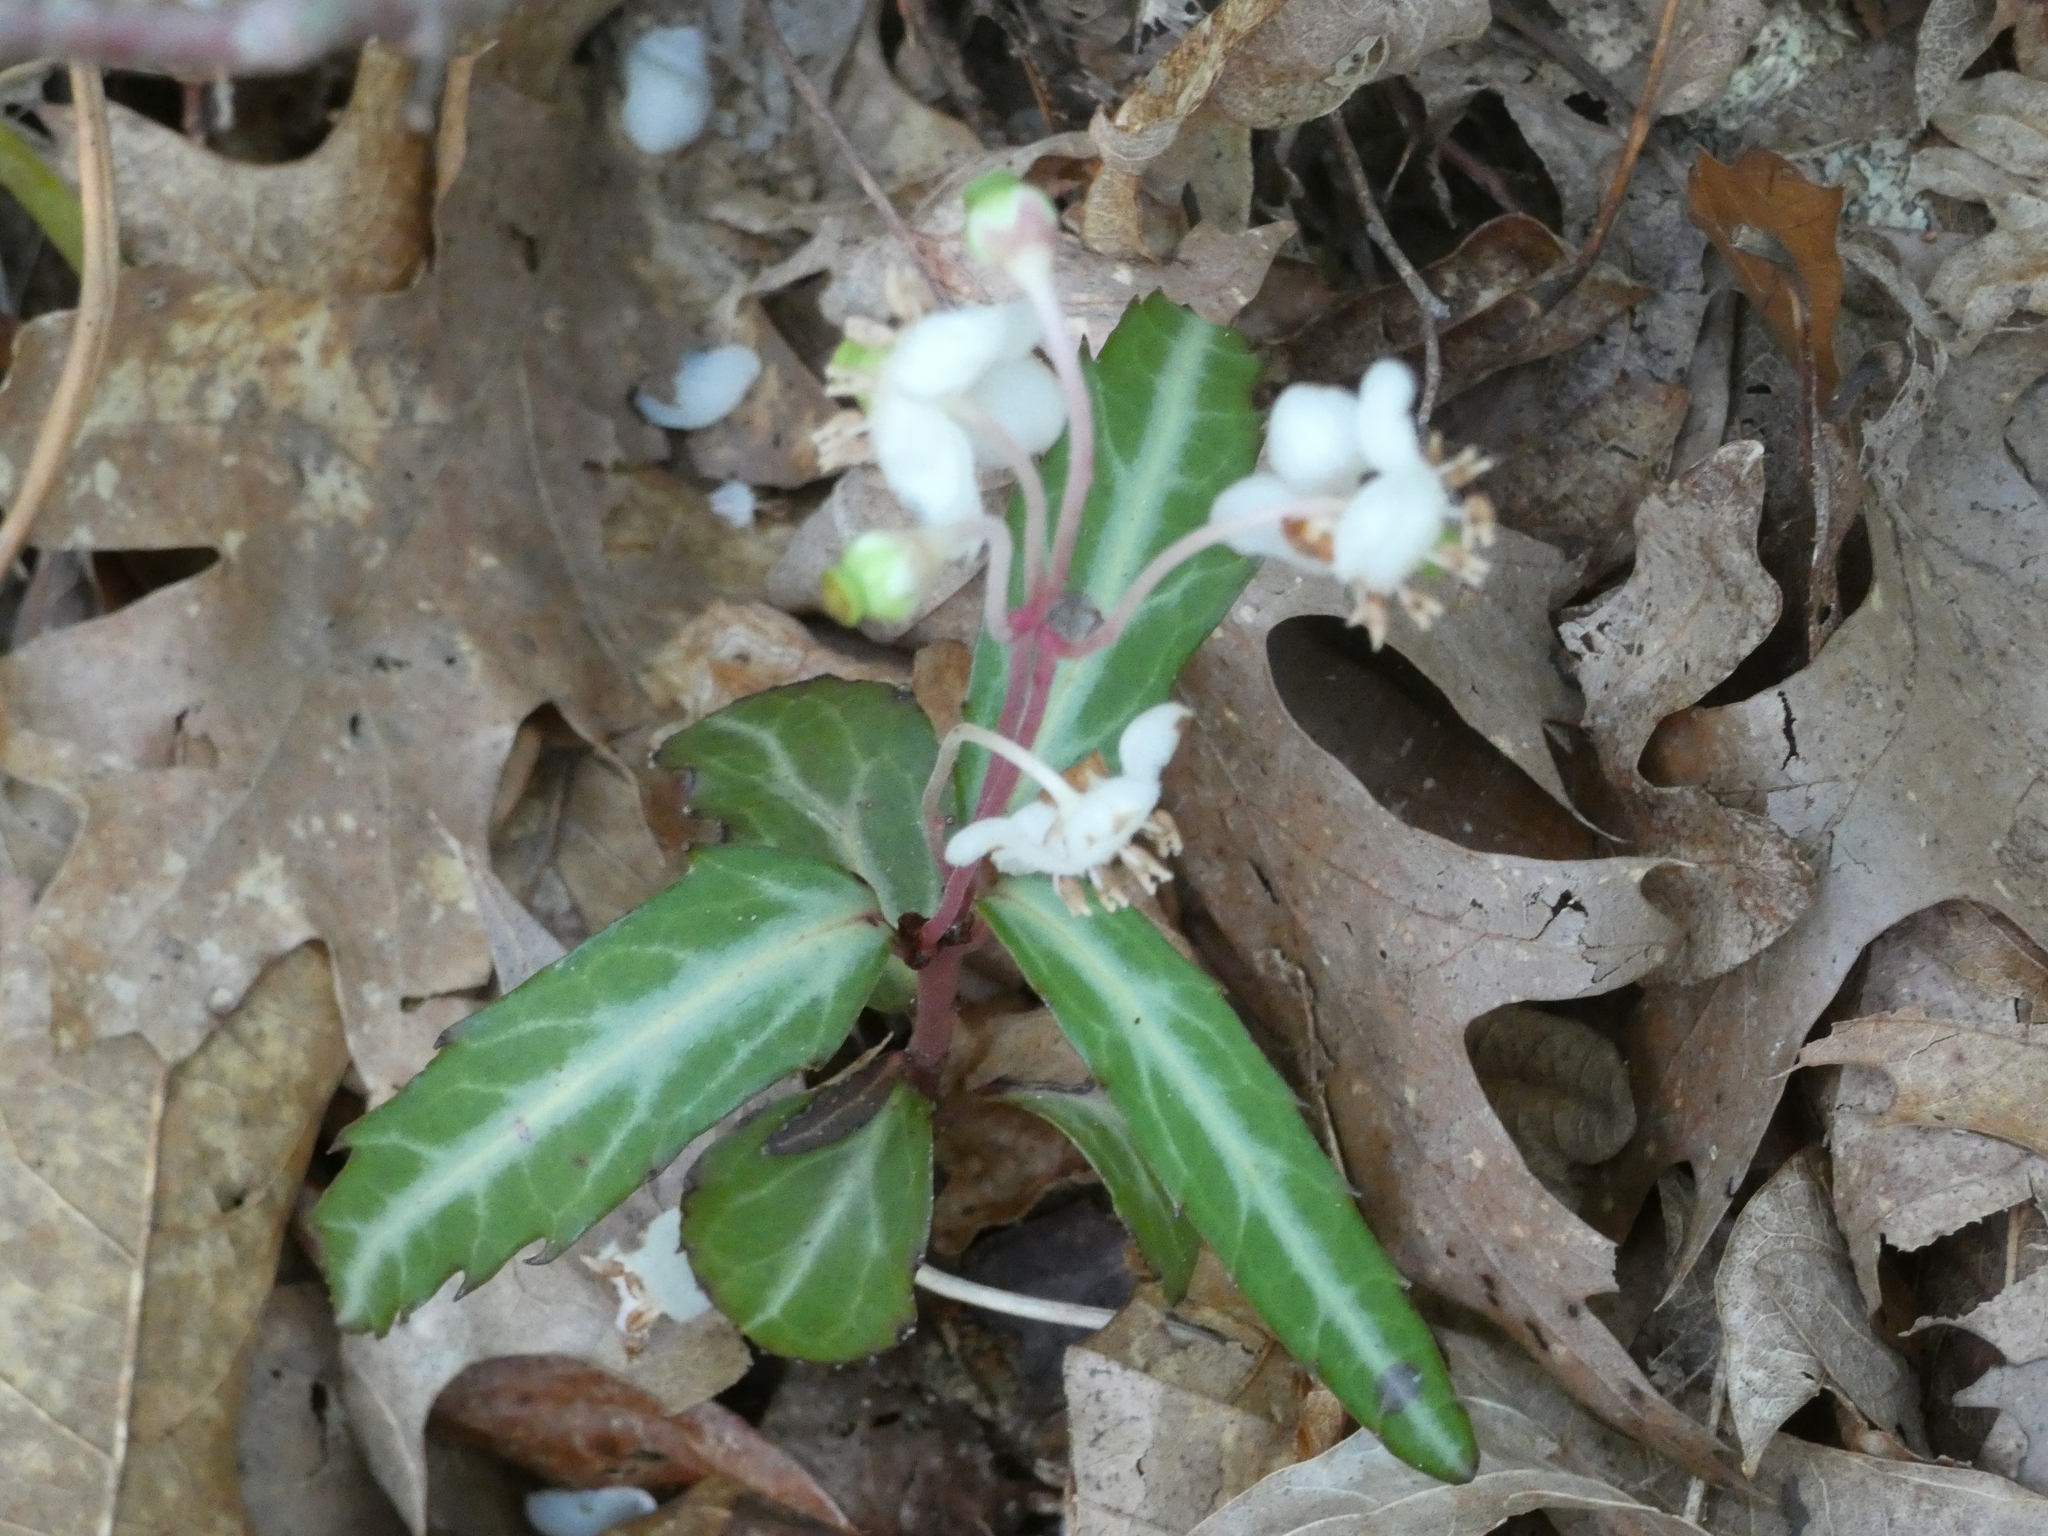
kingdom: Plantae
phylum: Tracheophyta
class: Magnoliopsida
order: Ericales
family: Ericaceae
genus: Chimaphila
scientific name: Chimaphila maculata
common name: Spotted pipsissewa
